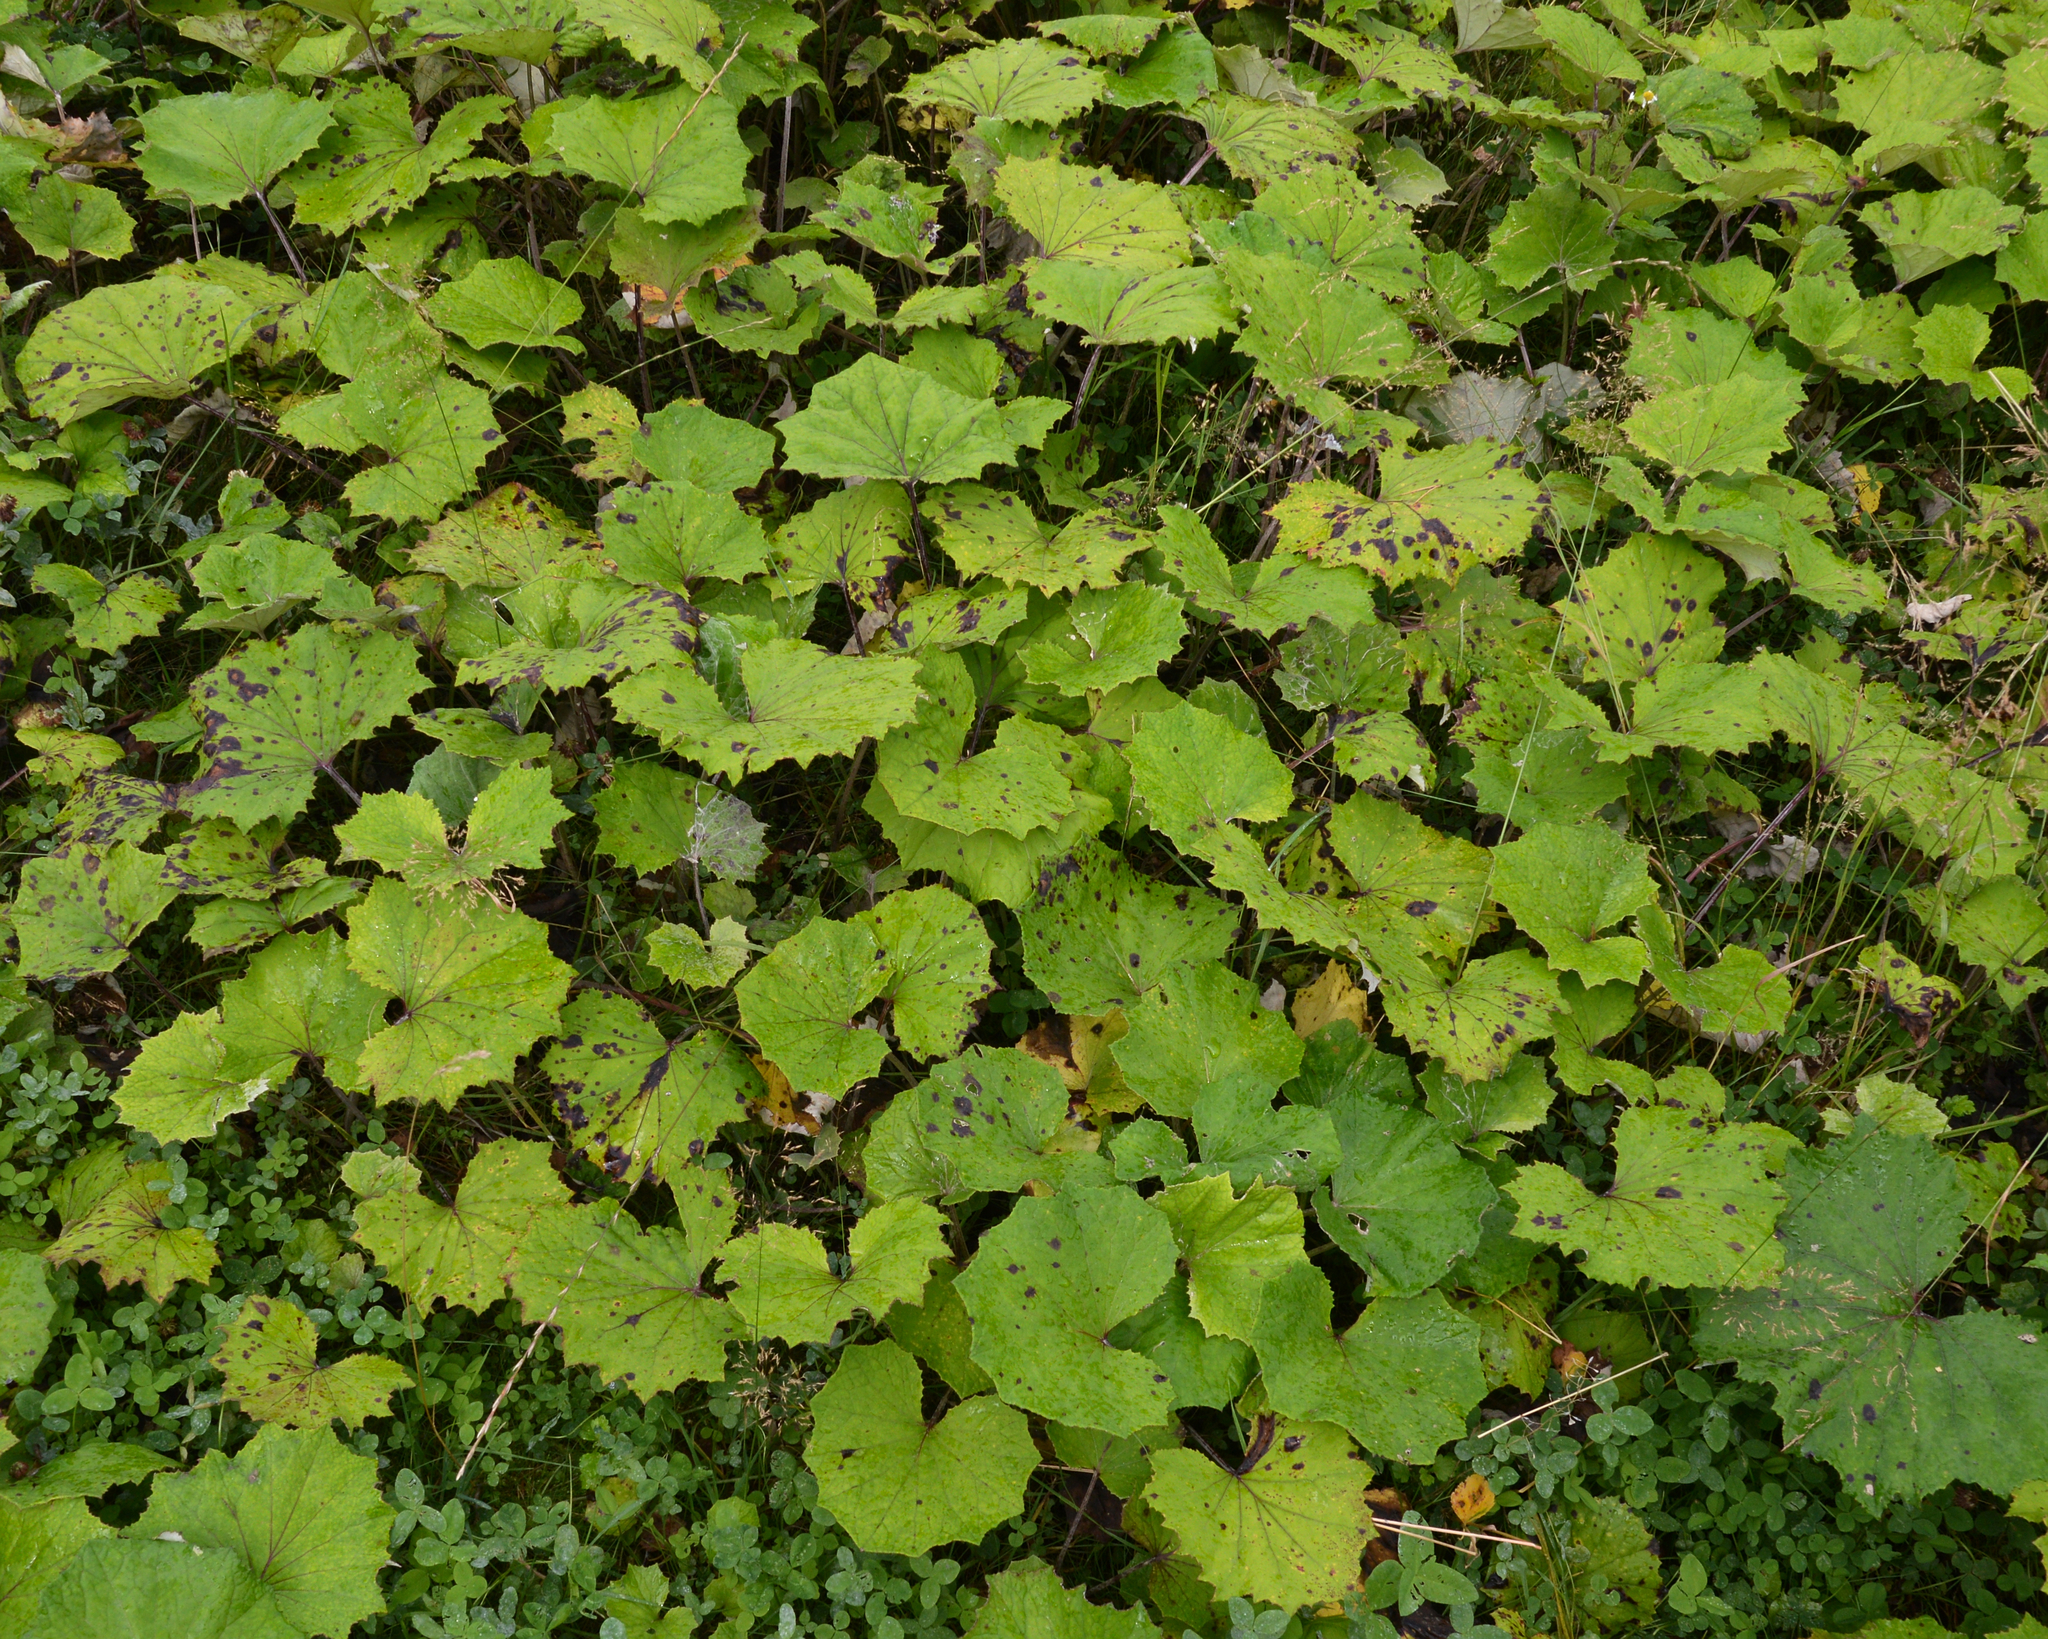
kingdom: Plantae
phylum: Tracheophyta
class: Magnoliopsida
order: Asterales
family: Asteraceae
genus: Tussilago
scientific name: Tussilago farfara
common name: Coltsfoot
